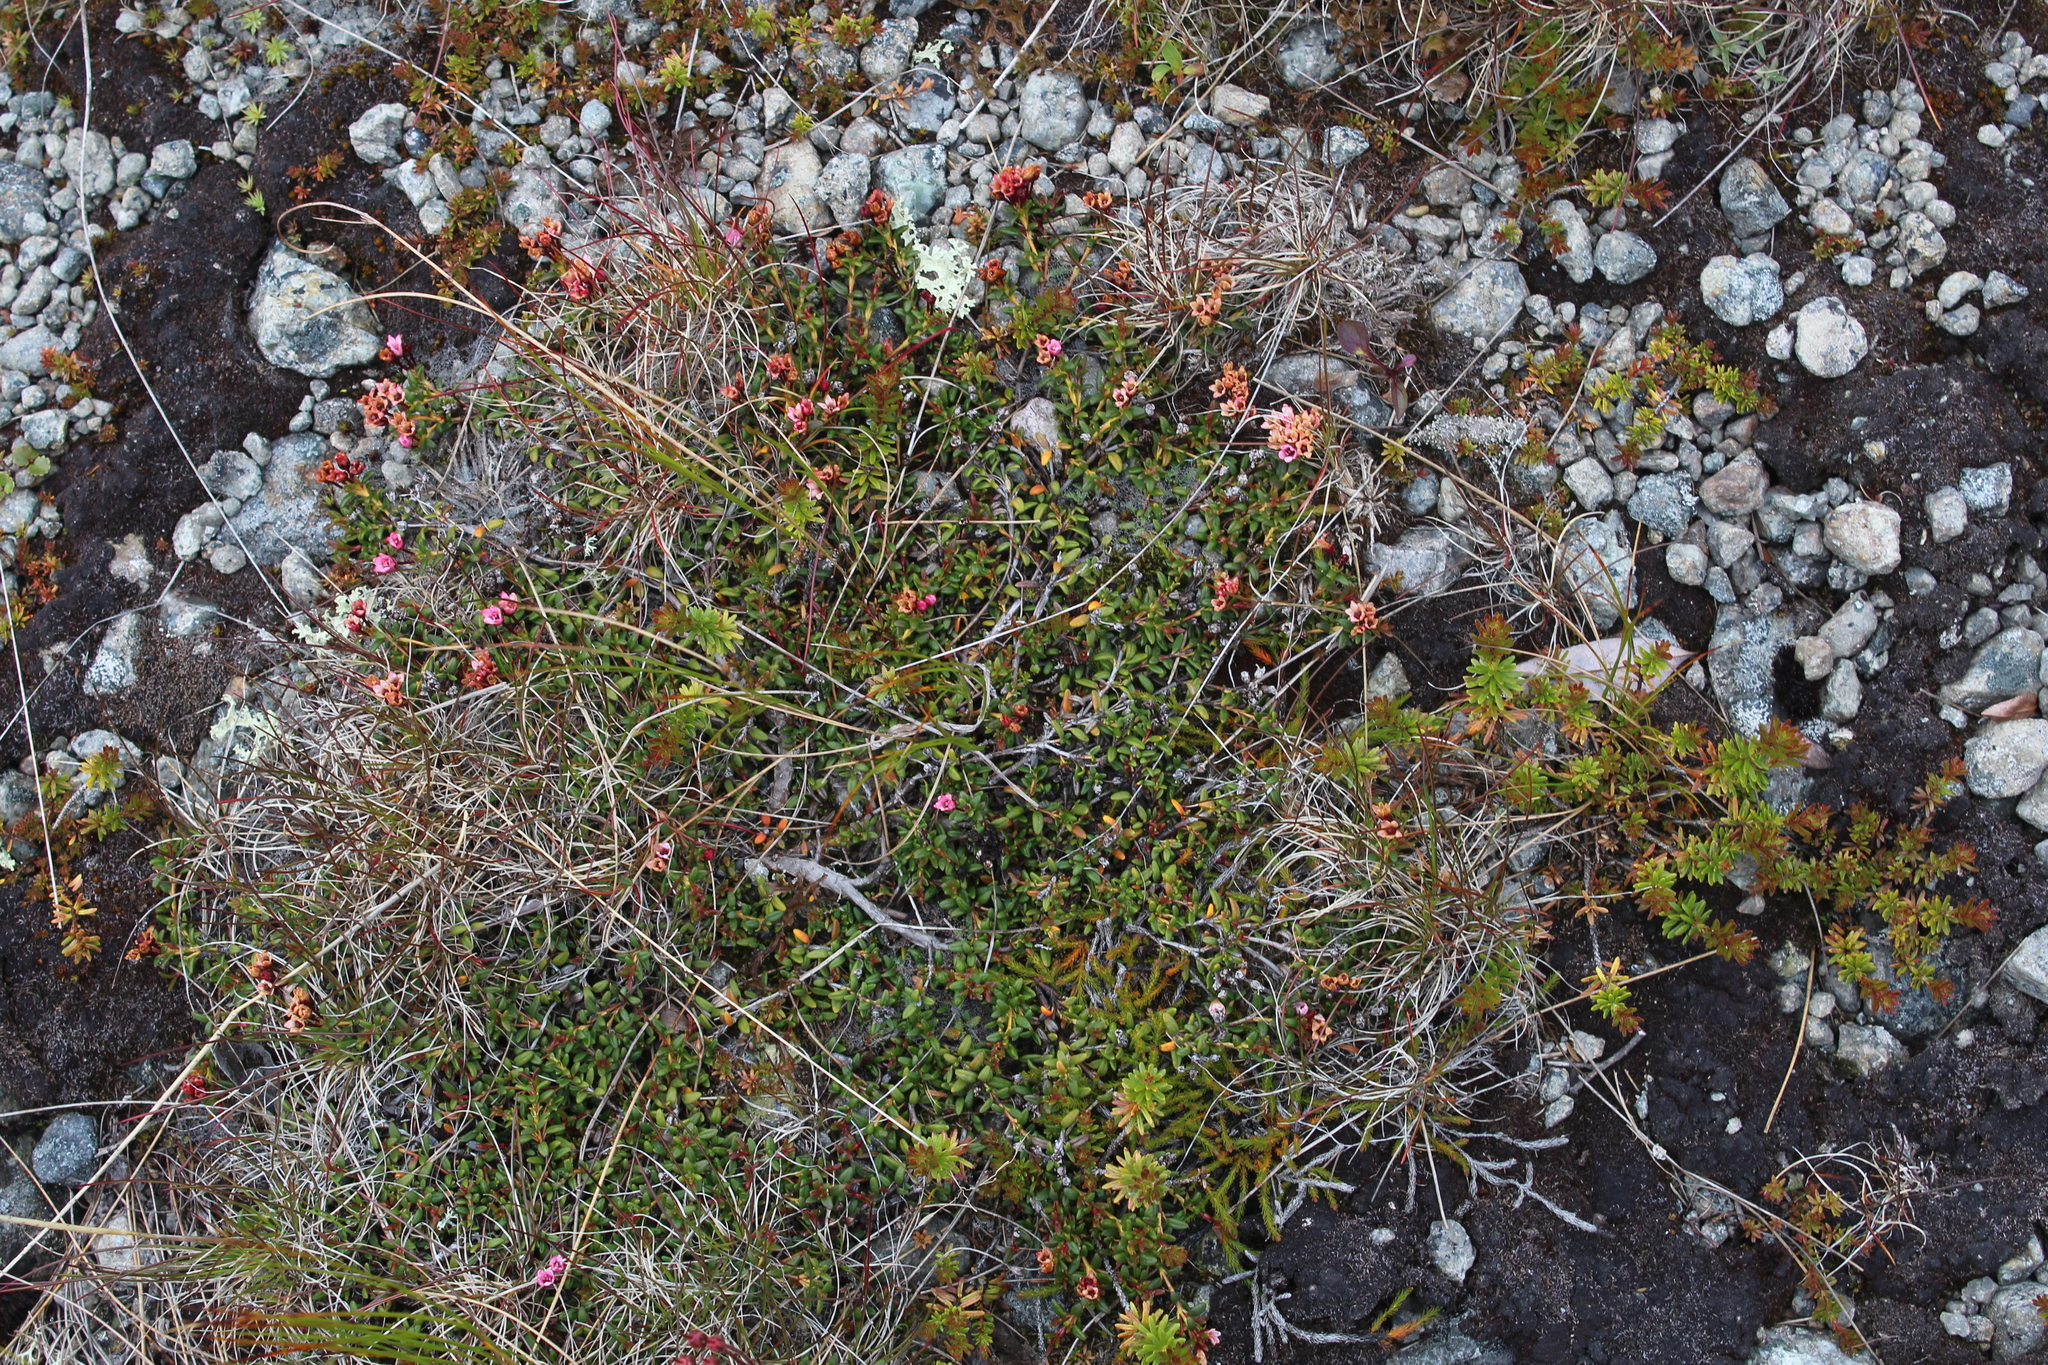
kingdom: Plantae
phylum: Tracheophyta
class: Magnoliopsida
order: Ericales
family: Ericaceae
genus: Kalmia
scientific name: Kalmia procumbens
